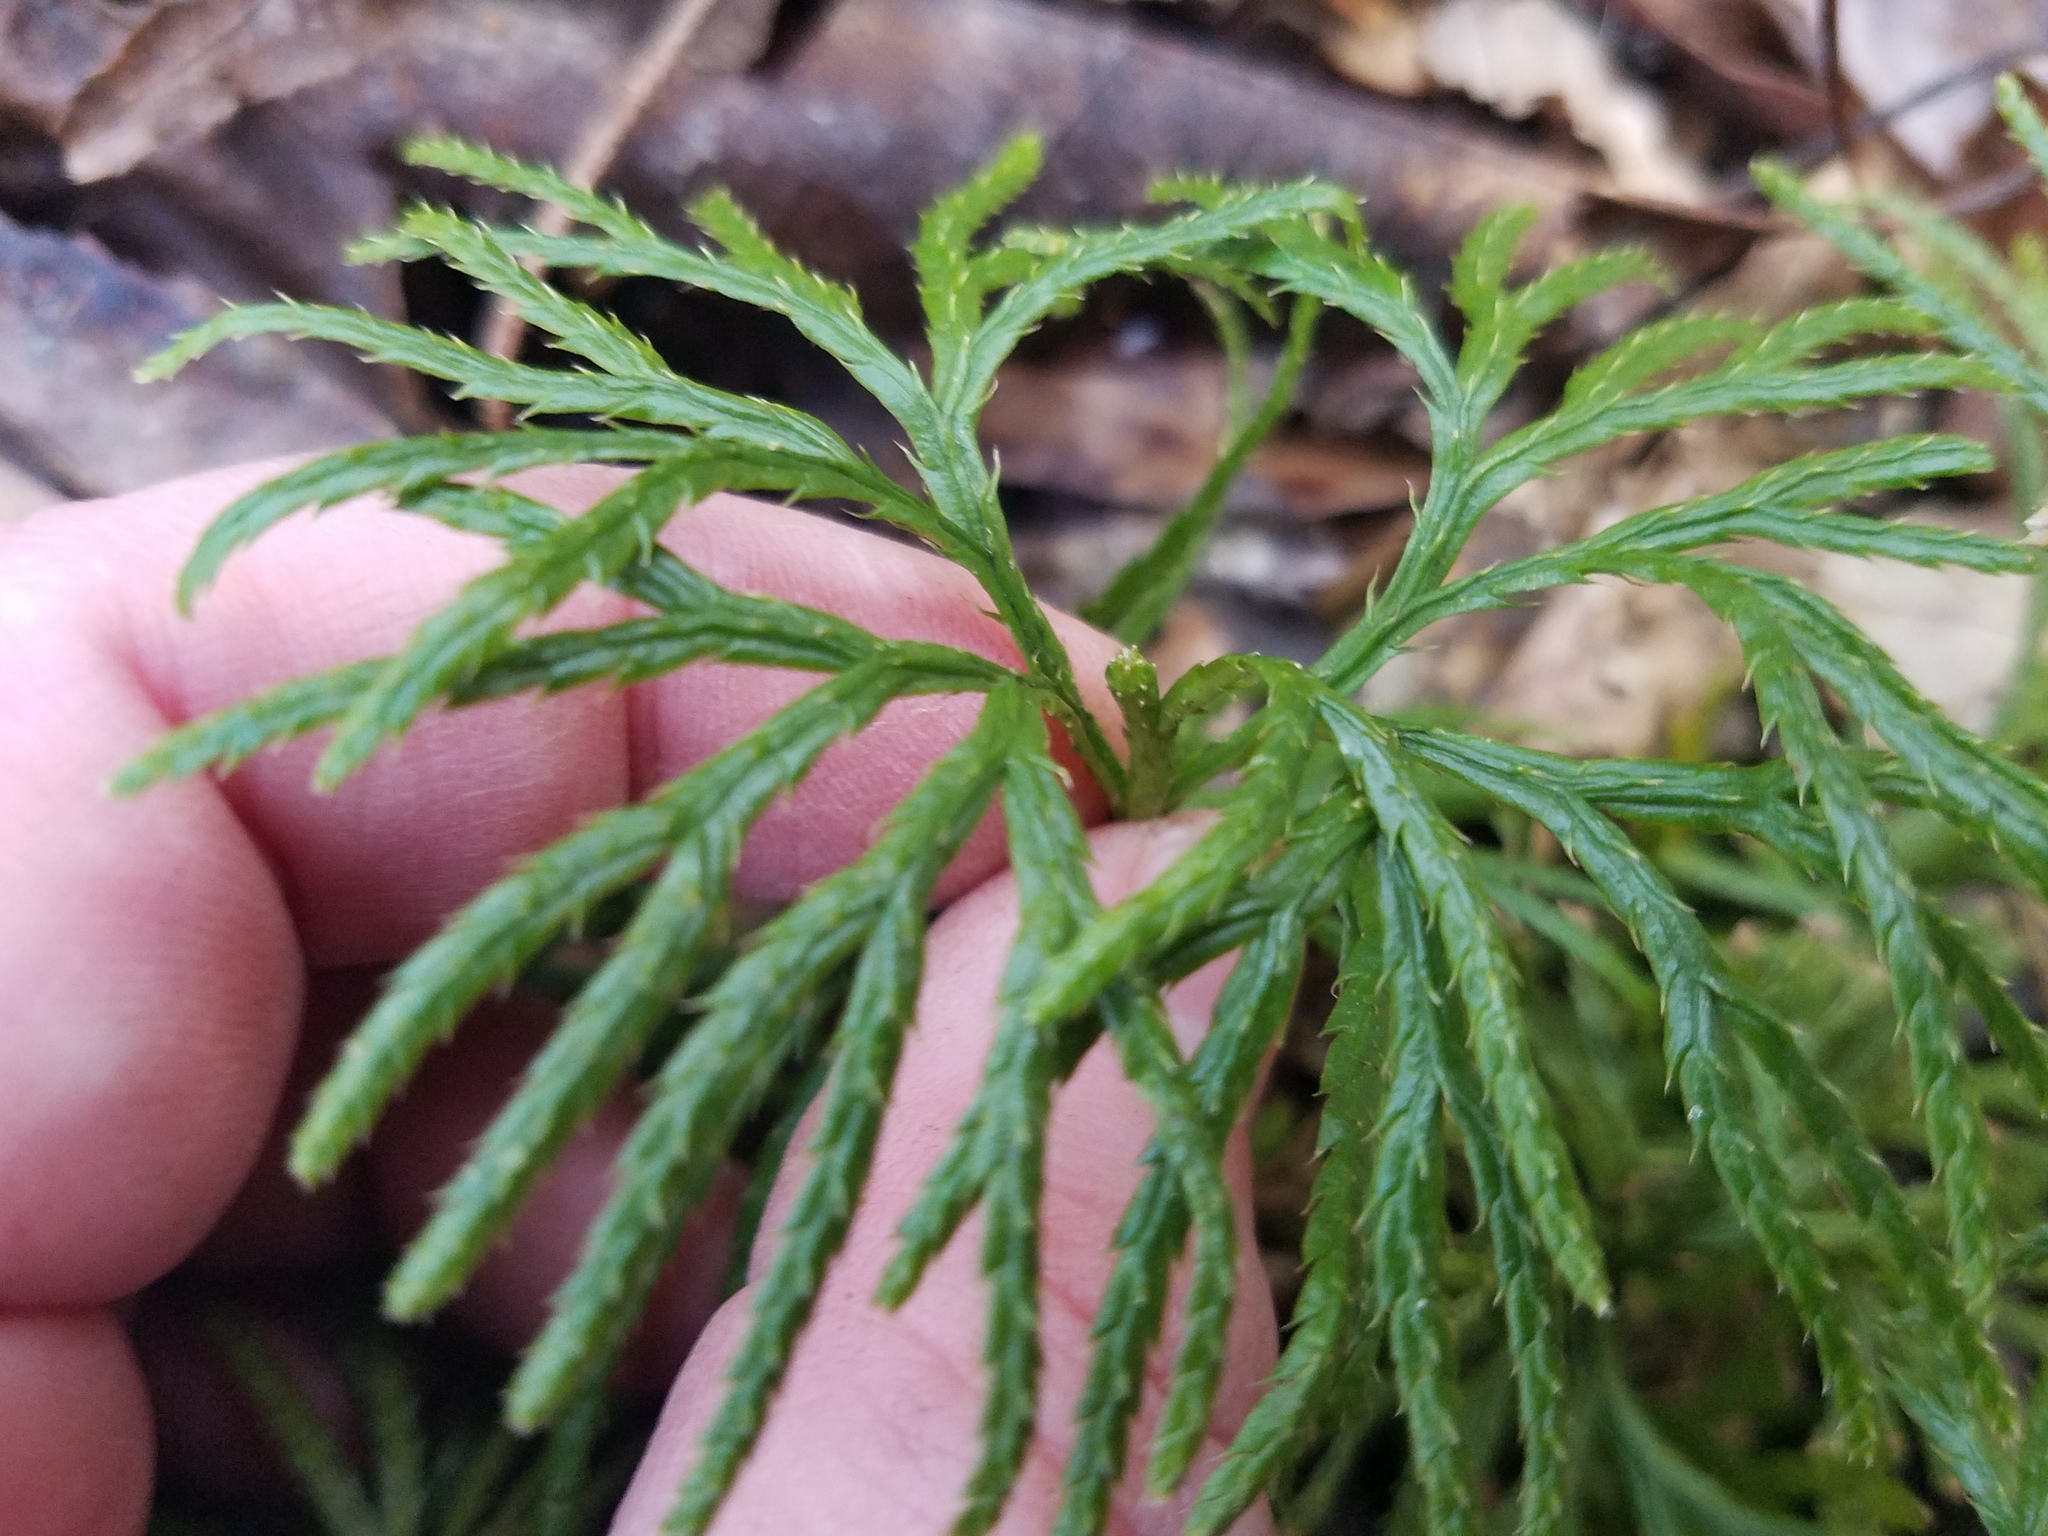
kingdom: Plantae
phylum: Tracheophyta
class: Lycopodiopsida
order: Lycopodiales
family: Lycopodiaceae
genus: Diphasiastrum
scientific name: Diphasiastrum digitatum
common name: Southern running-pine
